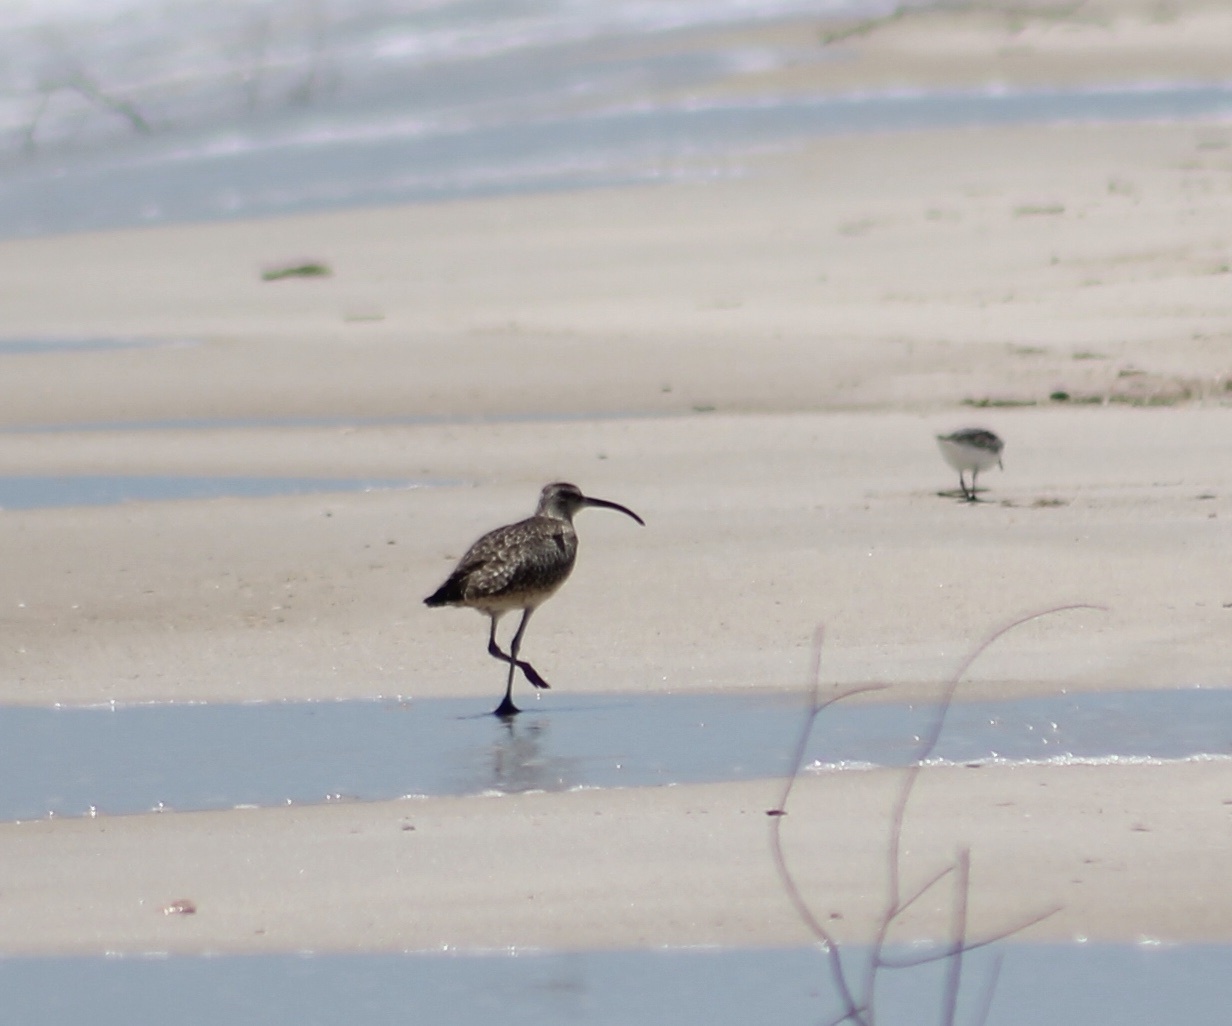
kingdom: Animalia
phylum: Chordata
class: Aves
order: Charadriiformes
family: Scolopacidae
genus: Numenius
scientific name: Numenius phaeopus
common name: Whimbrel
